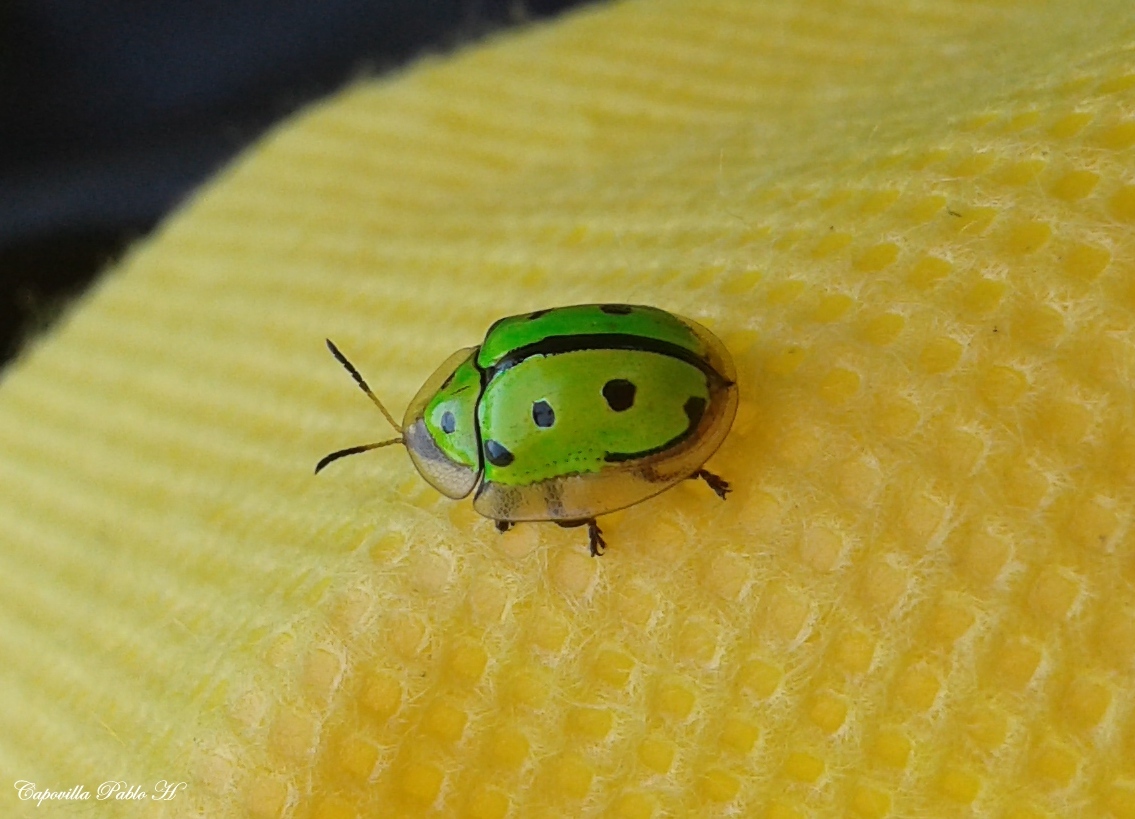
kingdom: Animalia
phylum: Arthropoda
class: Insecta
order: Coleoptera
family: Chrysomelidae
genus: Coptocycla
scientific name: Coptocycla adamantina
